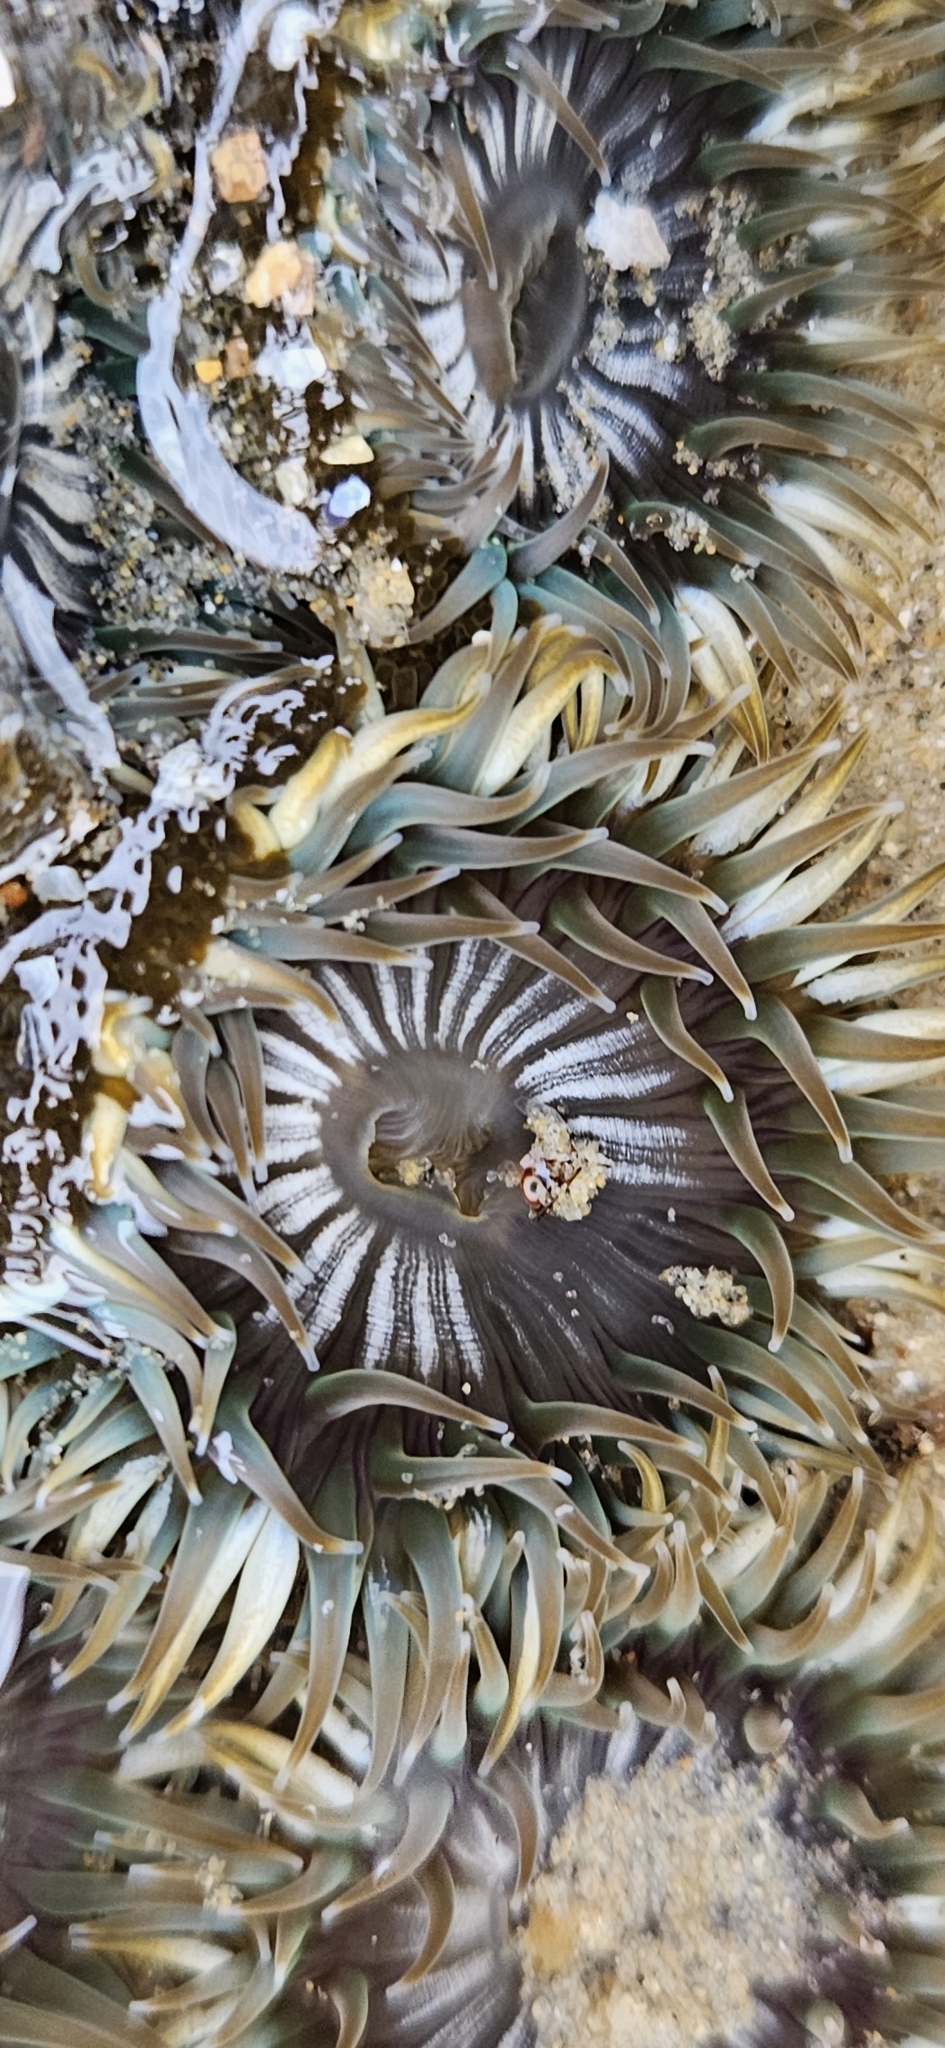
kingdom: Animalia
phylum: Cnidaria
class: Anthozoa
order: Actiniaria
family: Actiniidae
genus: Anthopleura
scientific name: Anthopleura elegantissima
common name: Clonal anemone
